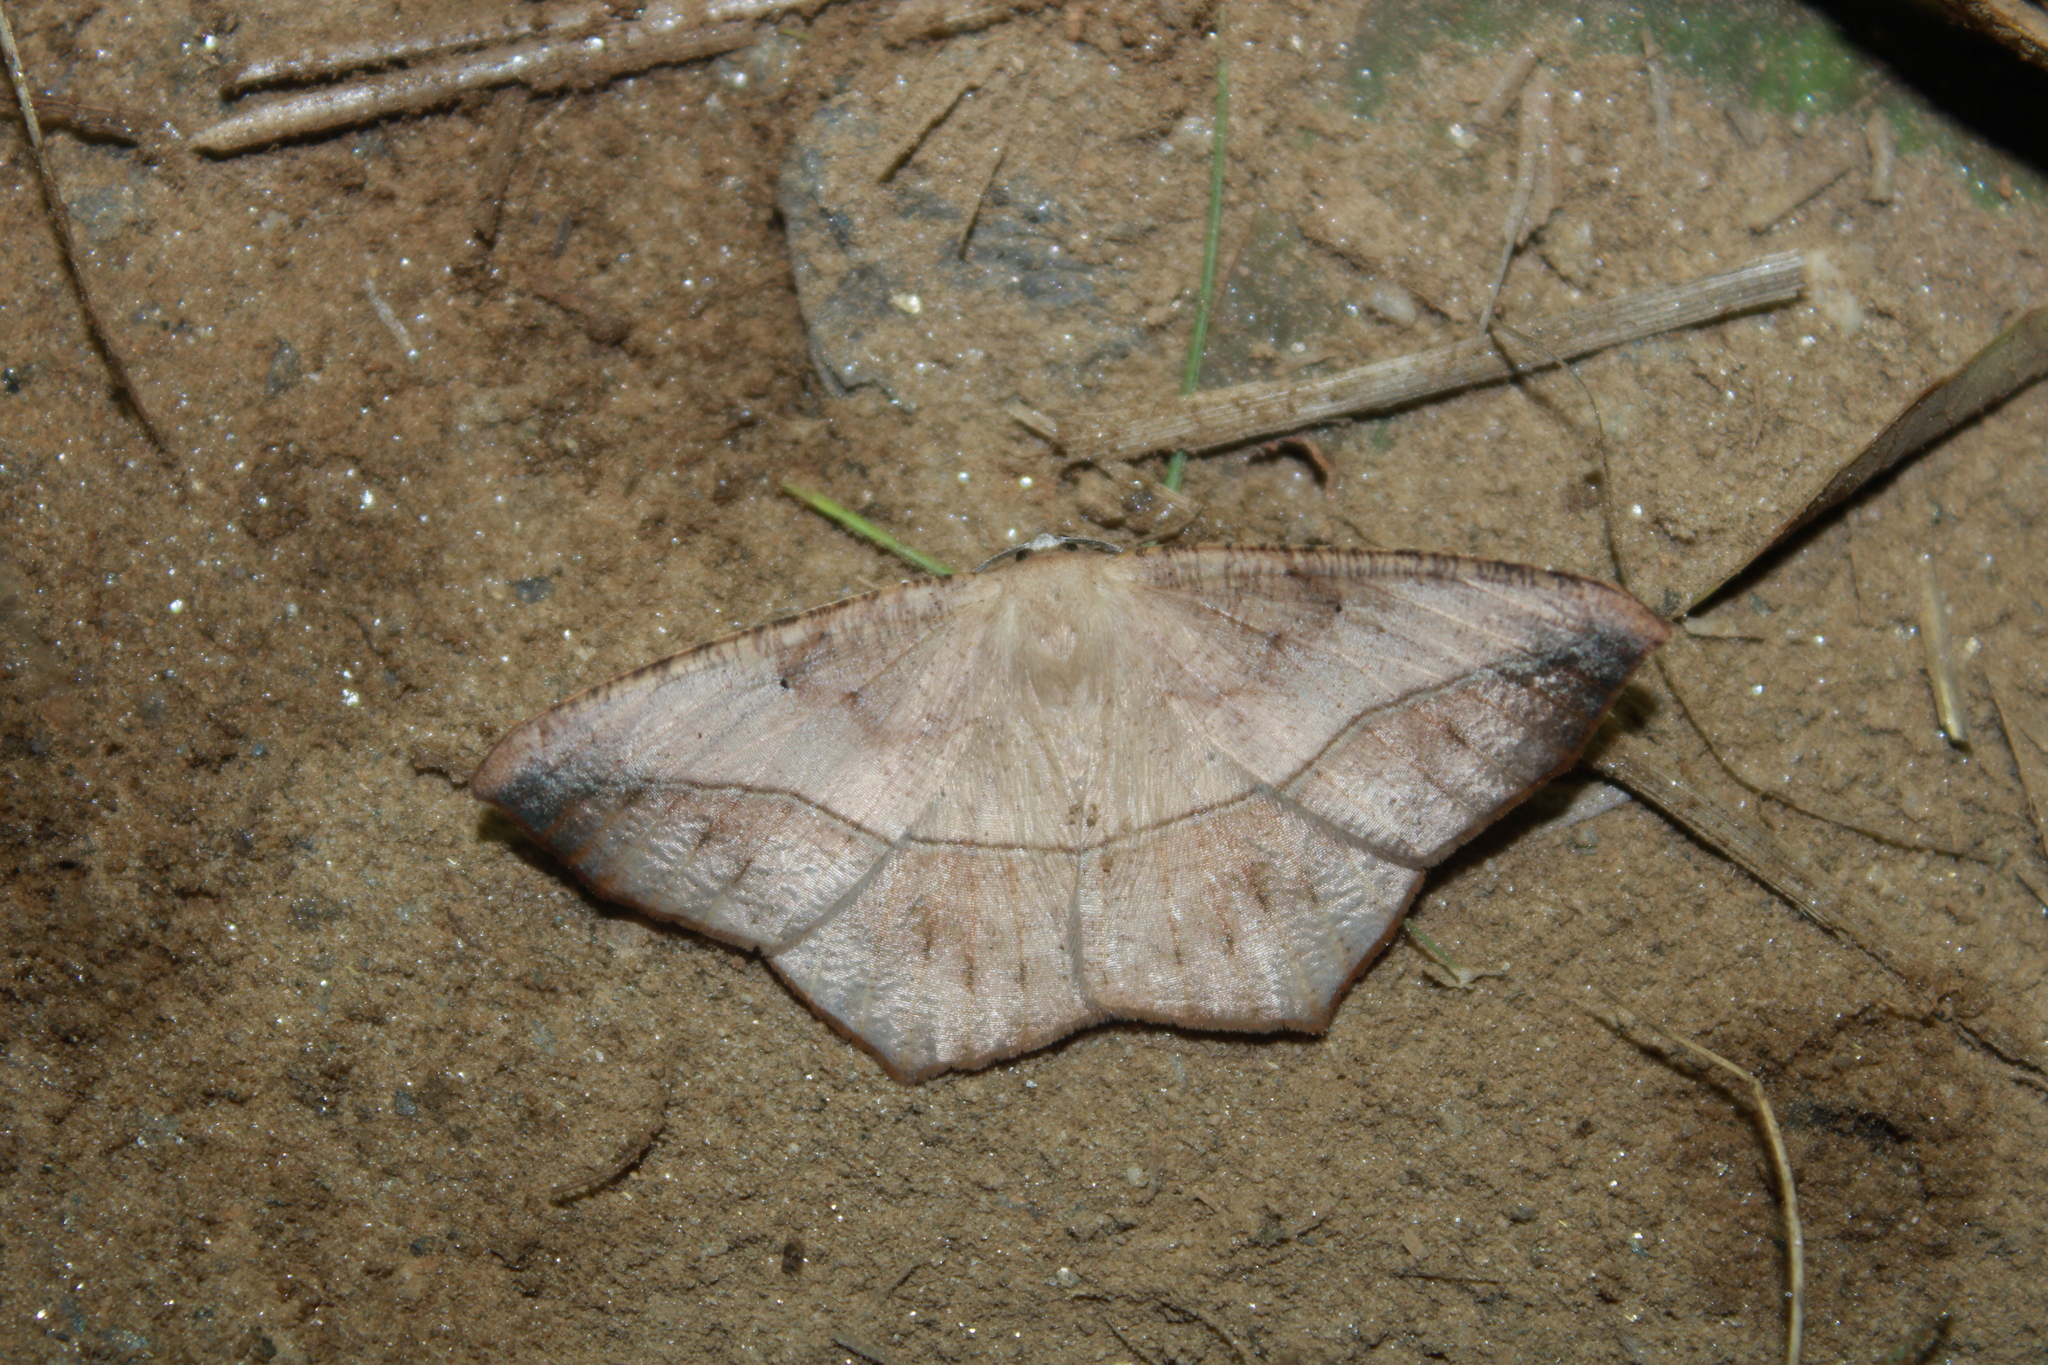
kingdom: Animalia
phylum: Arthropoda
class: Insecta
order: Lepidoptera
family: Geometridae
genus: Prochoerodes
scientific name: Prochoerodes lineola
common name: Large maple spanworm
